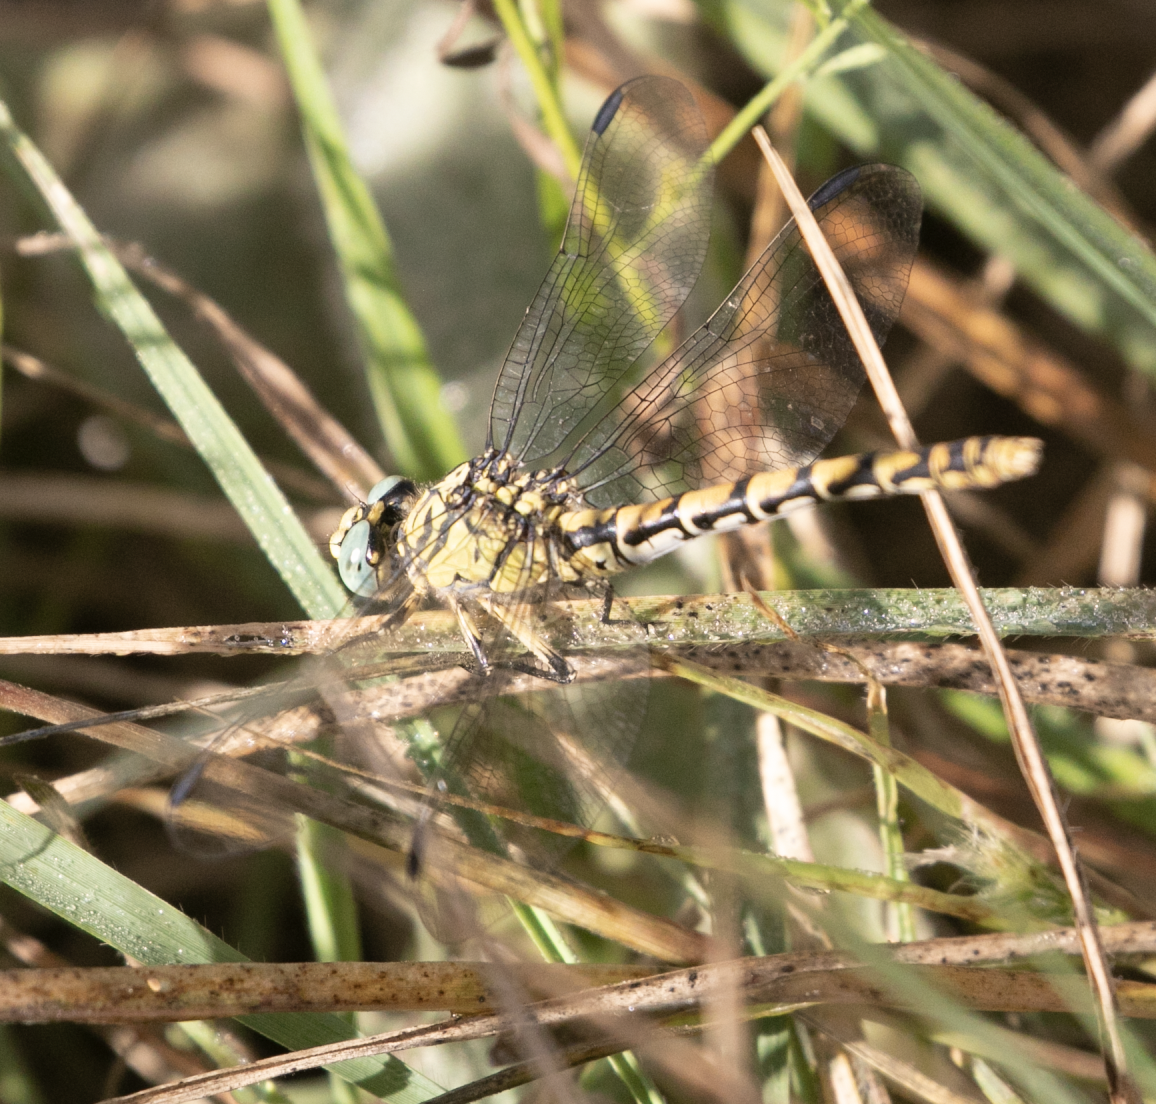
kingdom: Animalia
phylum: Arthropoda
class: Insecta
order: Odonata
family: Gomphidae
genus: Onychogomphus
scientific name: Onychogomphus forcipatus
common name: Small pincertail
